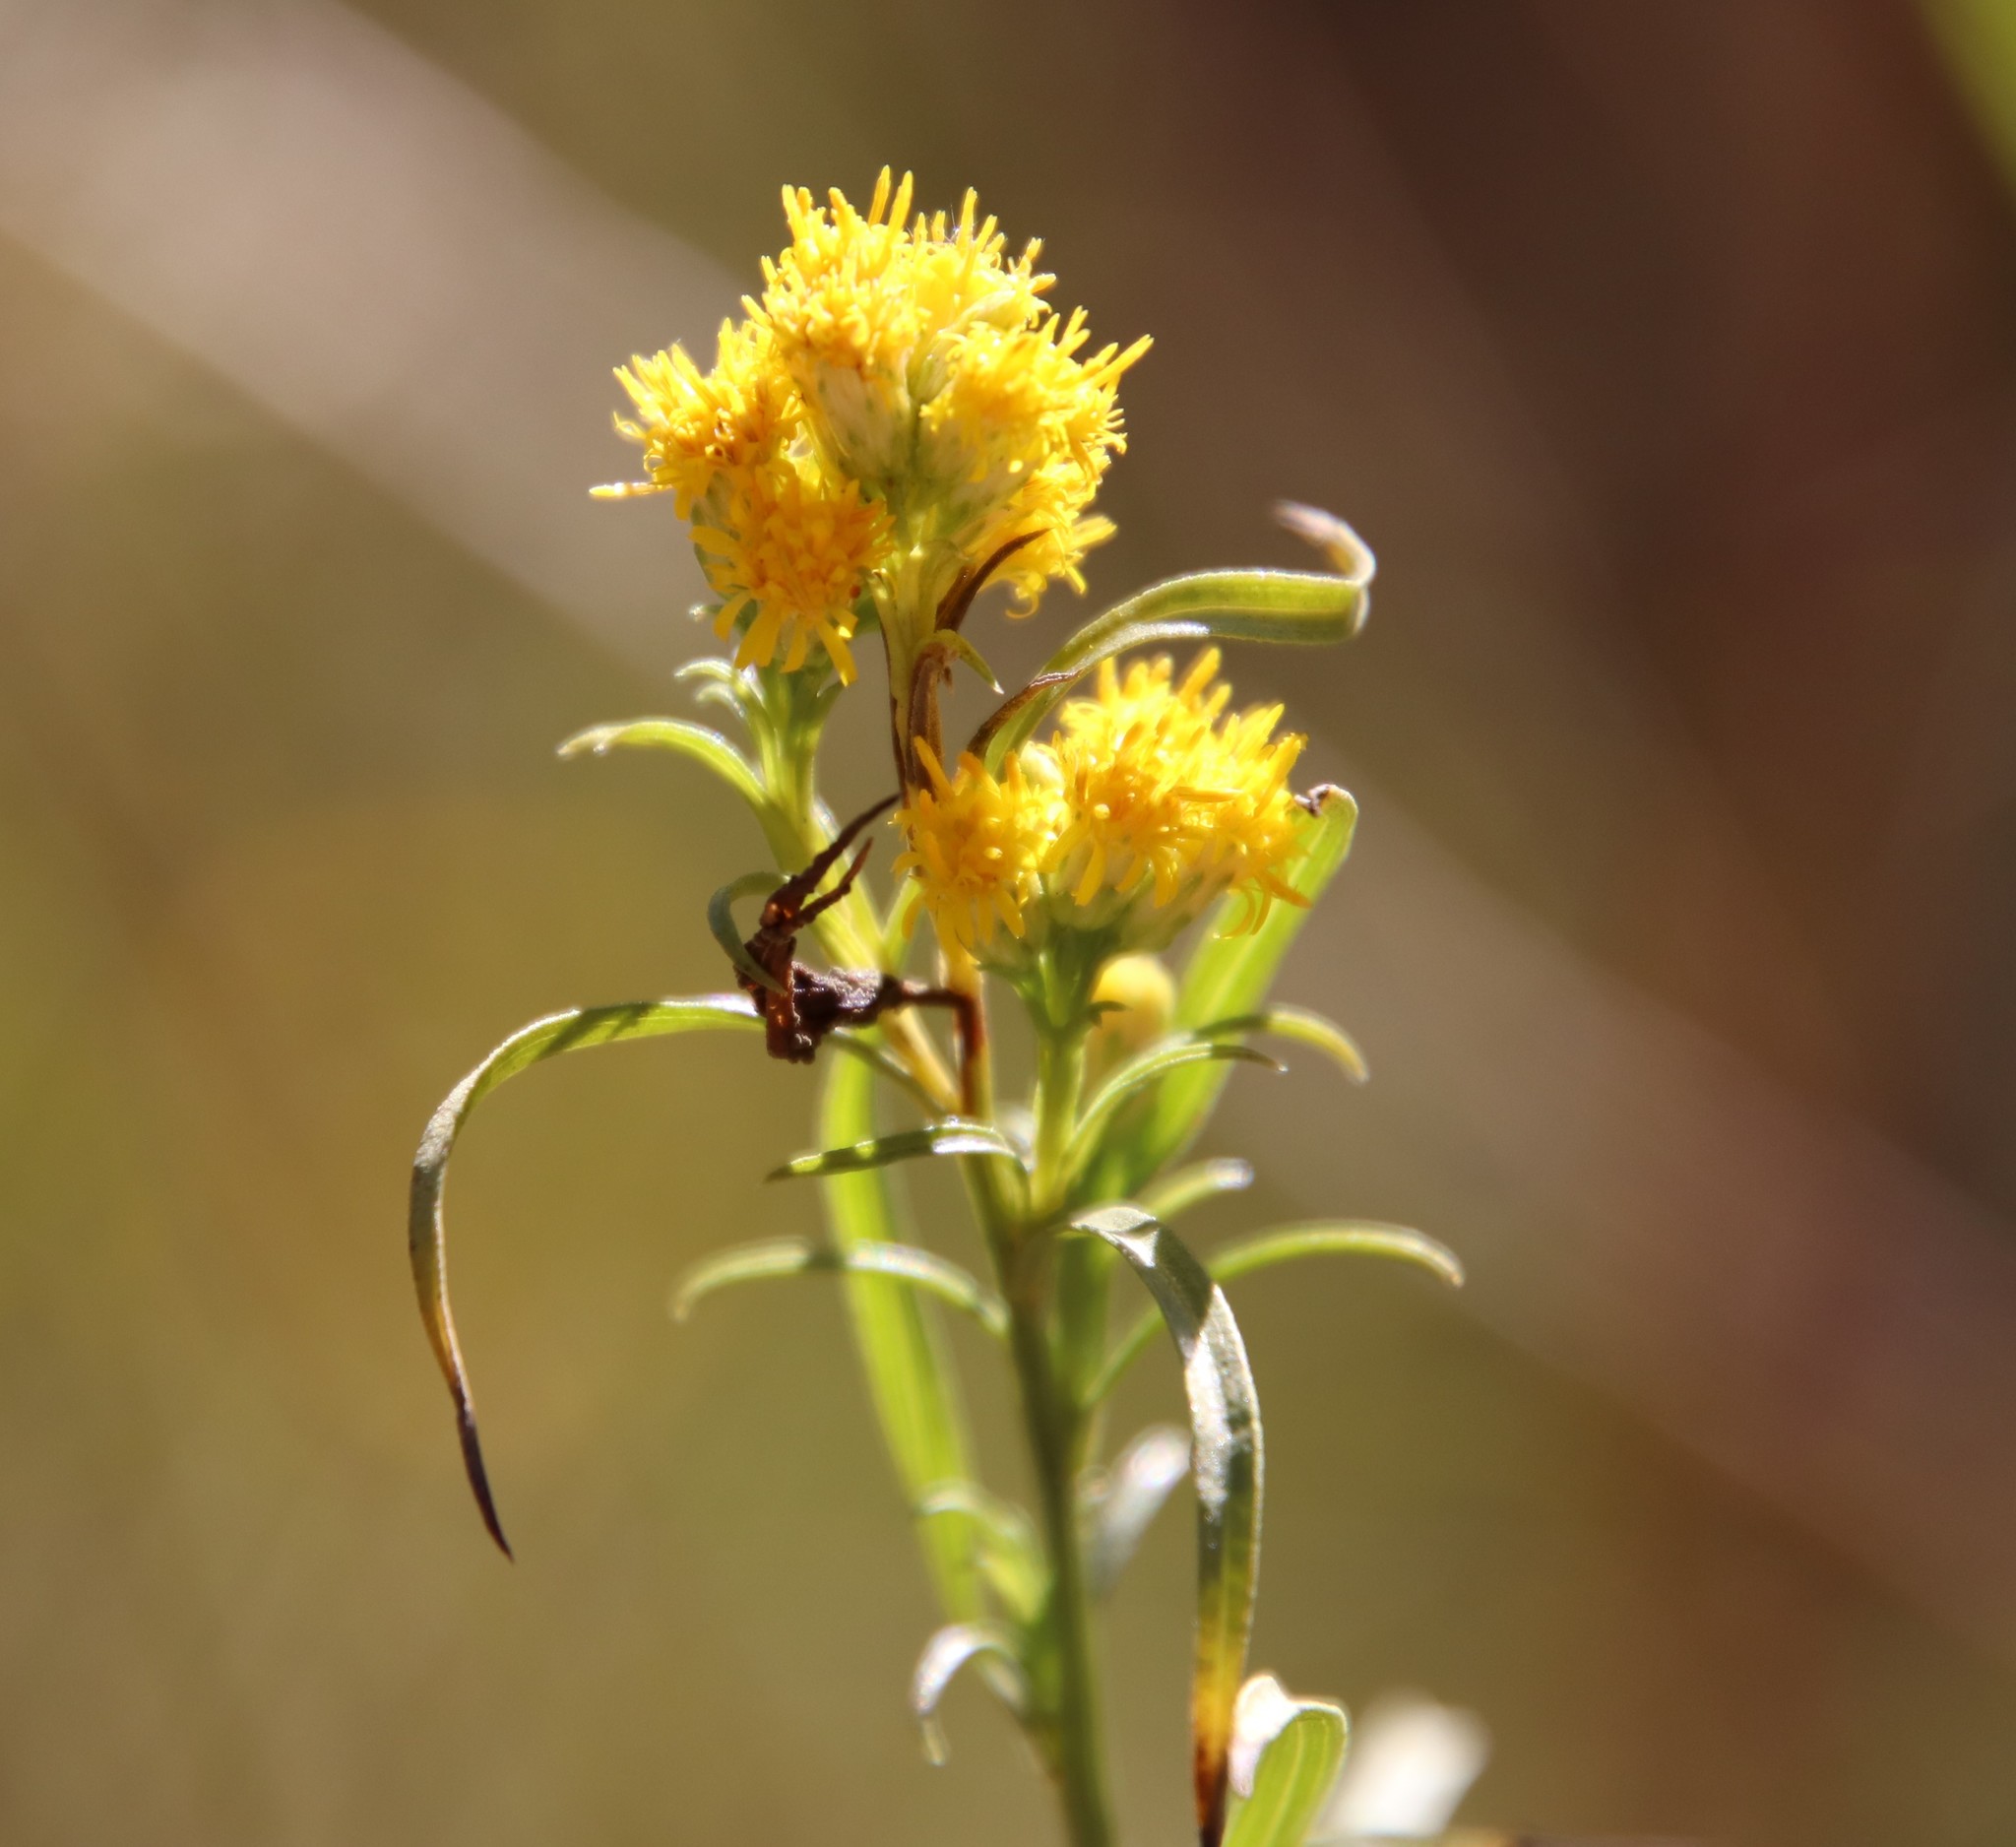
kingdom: Plantae
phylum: Tracheophyta
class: Magnoliopsida
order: Asterales
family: Asteraceae
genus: Euthamia
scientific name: Euthamia occidentalis
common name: Western goldentop
